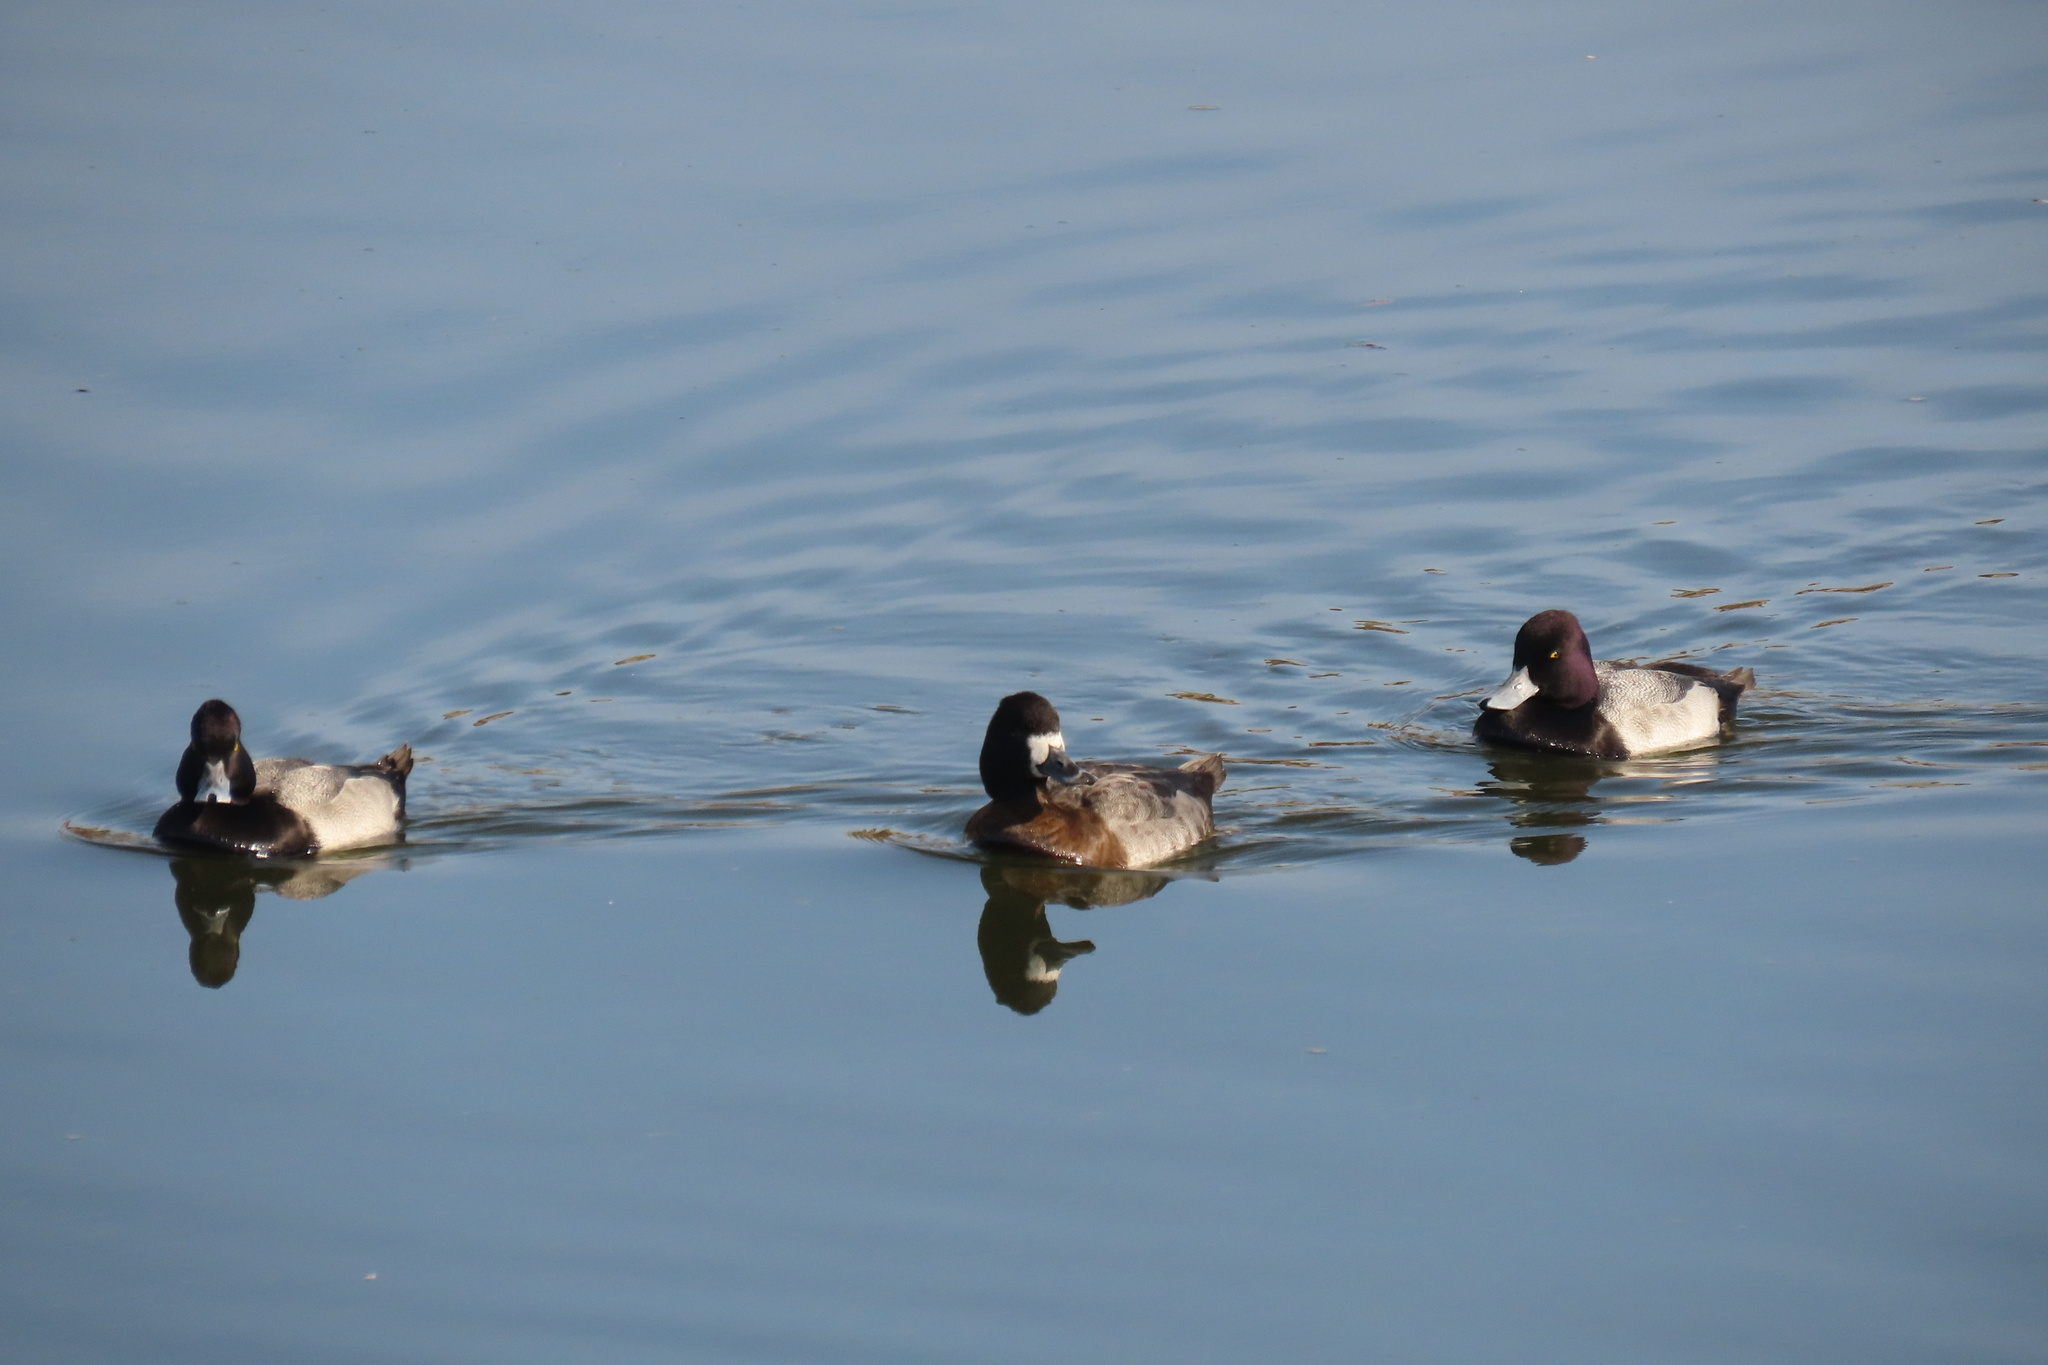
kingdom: Animalia
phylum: Chordata
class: Aves
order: Anseriformes
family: Anatidae
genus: Aythya
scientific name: Aythya affinis
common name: Lesser scaup
